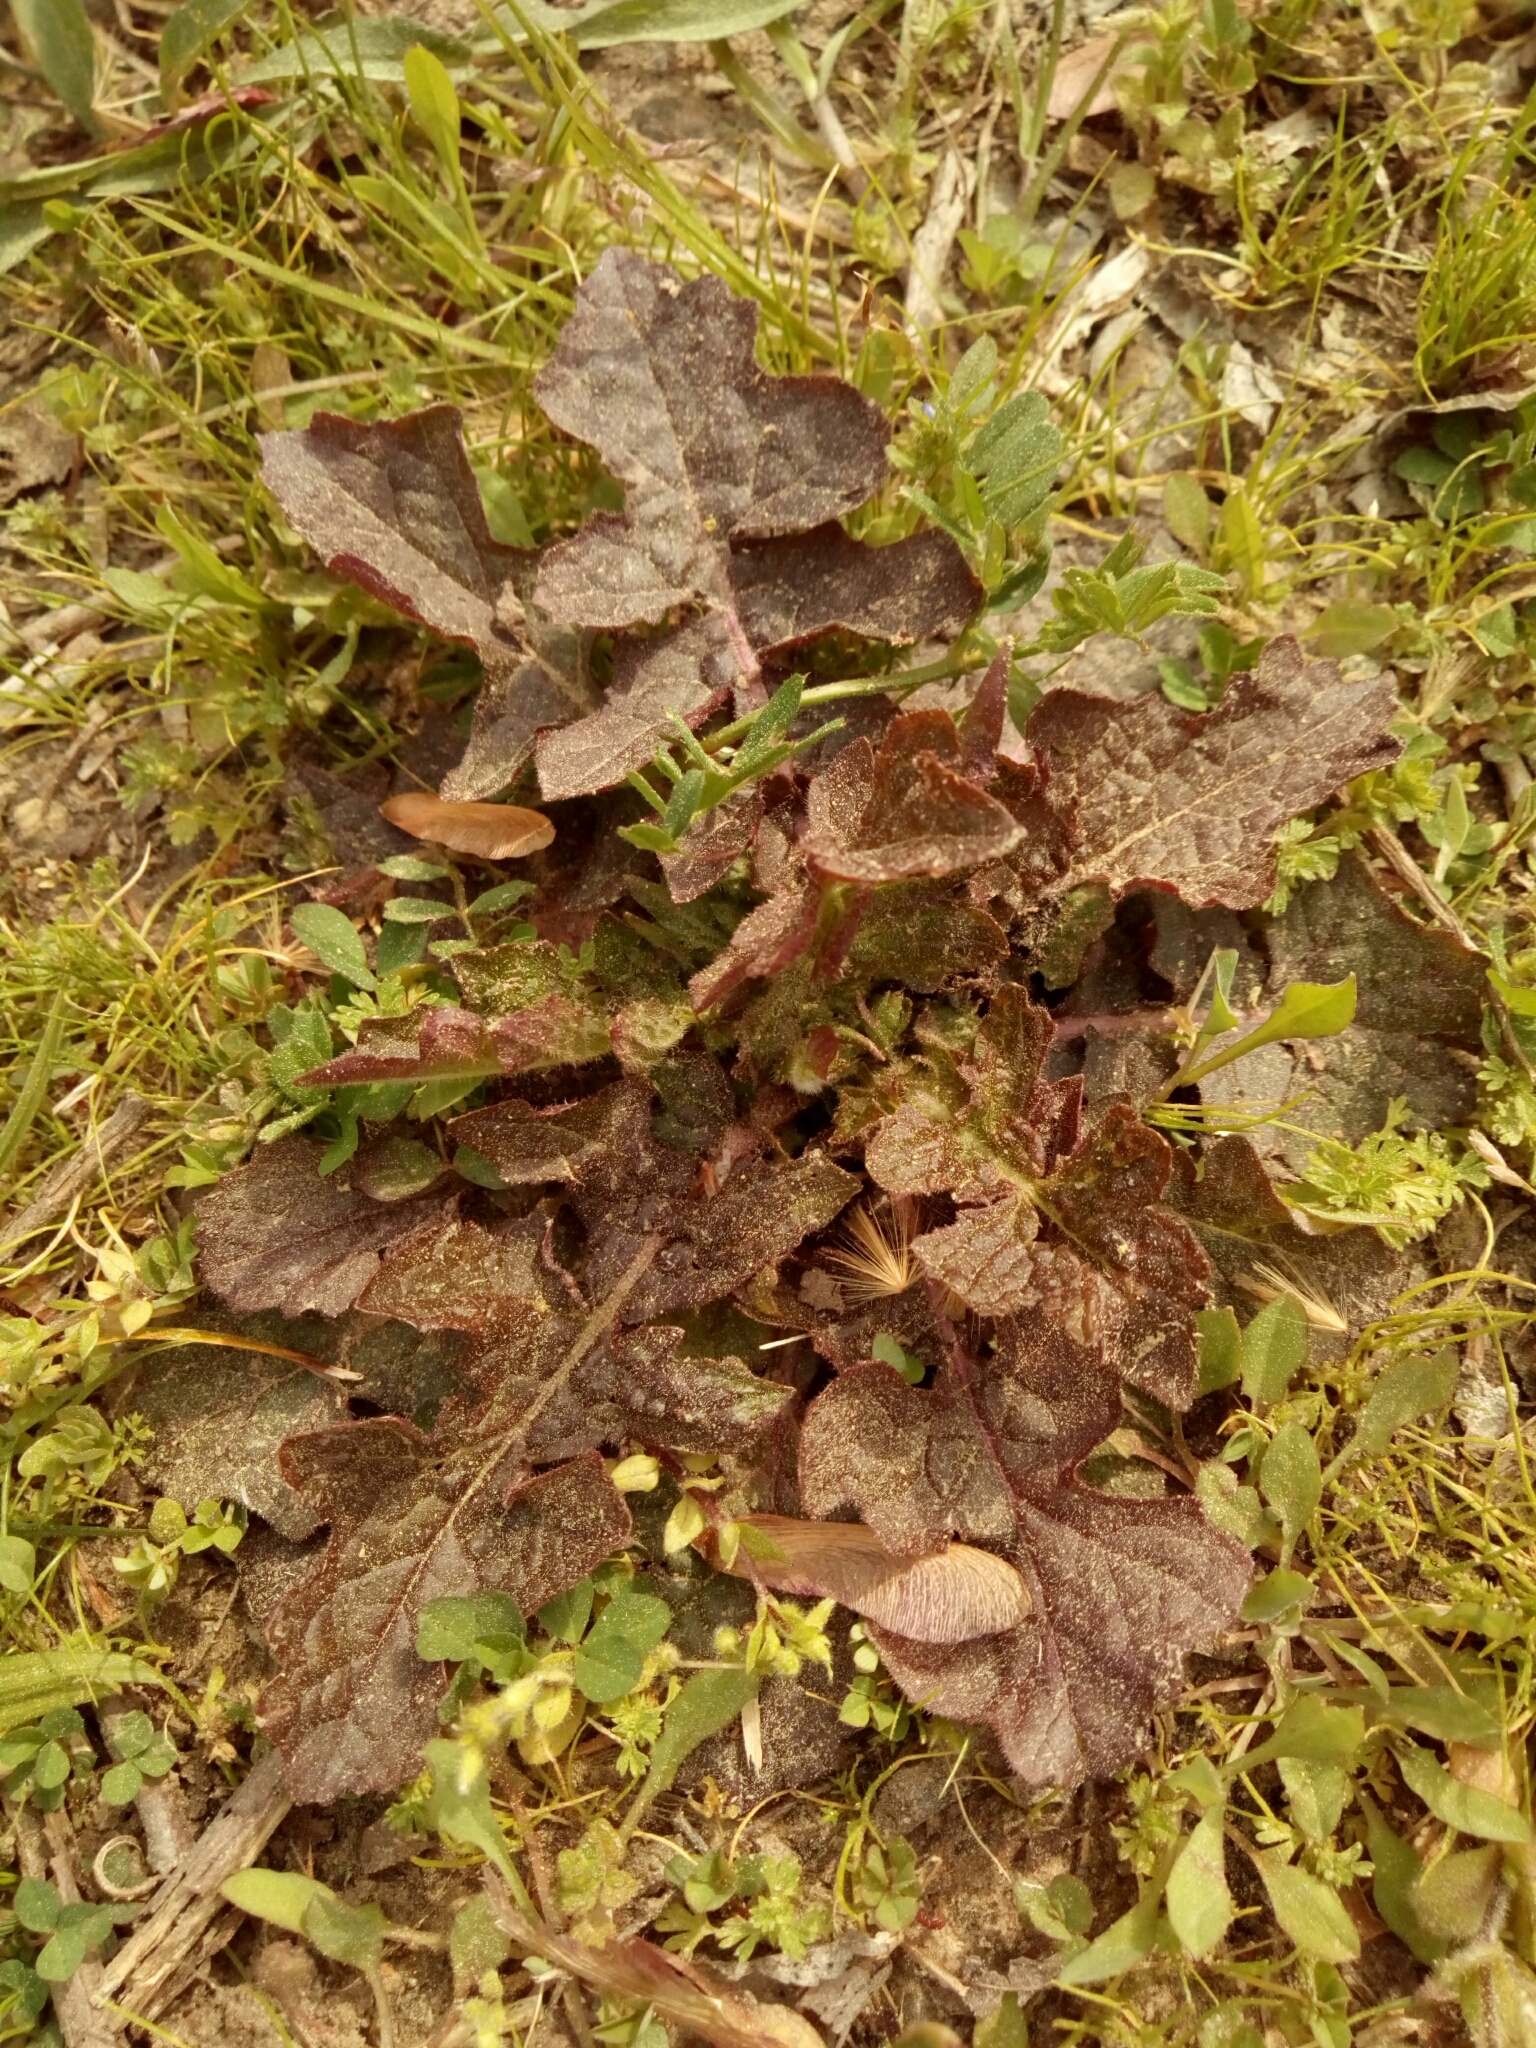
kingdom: Plantae
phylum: Tracheophyta
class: Magnoliopsida
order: Lamiales
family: Lamiaceae
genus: Salvia
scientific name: Salvia lyrata
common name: Cancerweed
